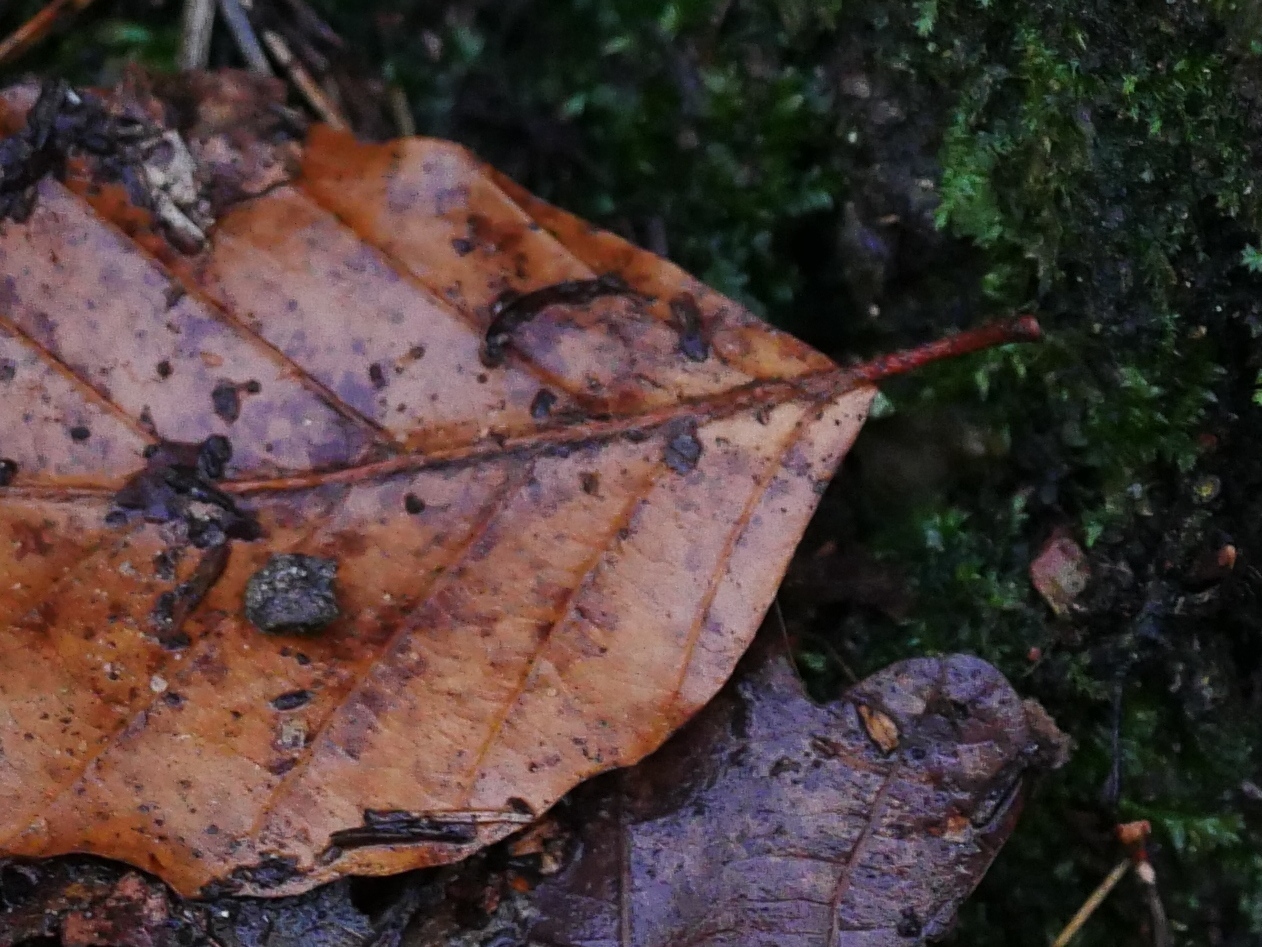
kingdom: Plantae
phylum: Tracheophyta
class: Magnoliopsida
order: Fagales
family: Fagaceae
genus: Fagus
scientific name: Fagus sylvatica
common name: Beech
